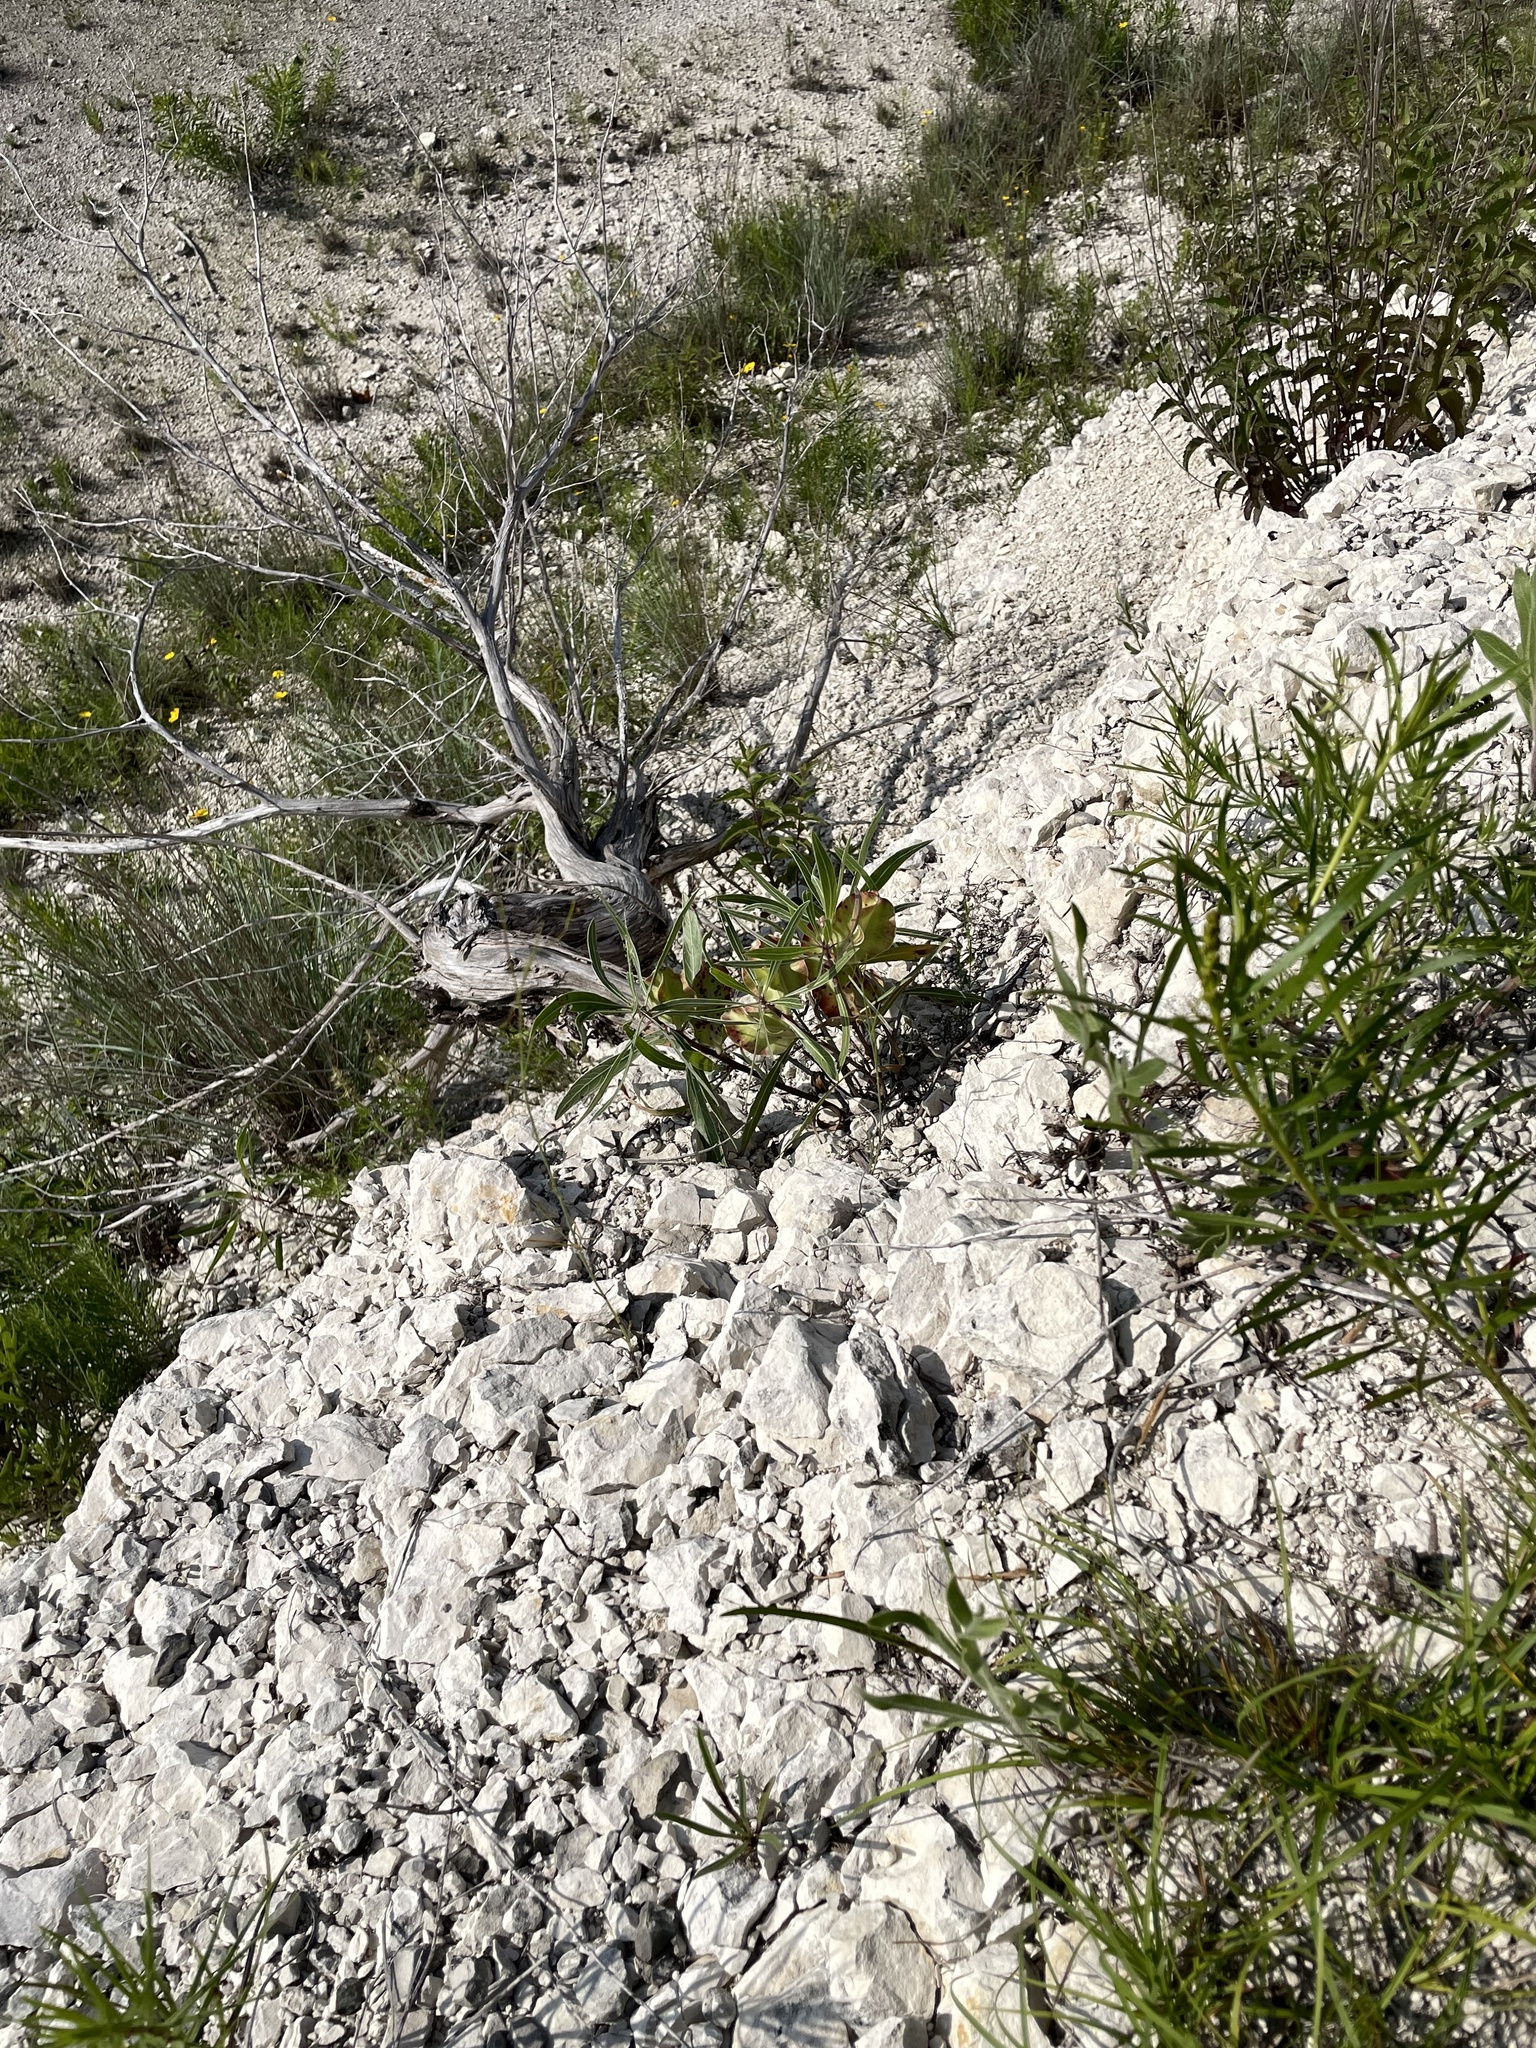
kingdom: Plantae
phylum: Tracheophyta
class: Magnoliopsida
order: Myrtales
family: Onagraceae
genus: Oenothera
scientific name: Oenothera macrocarpa
